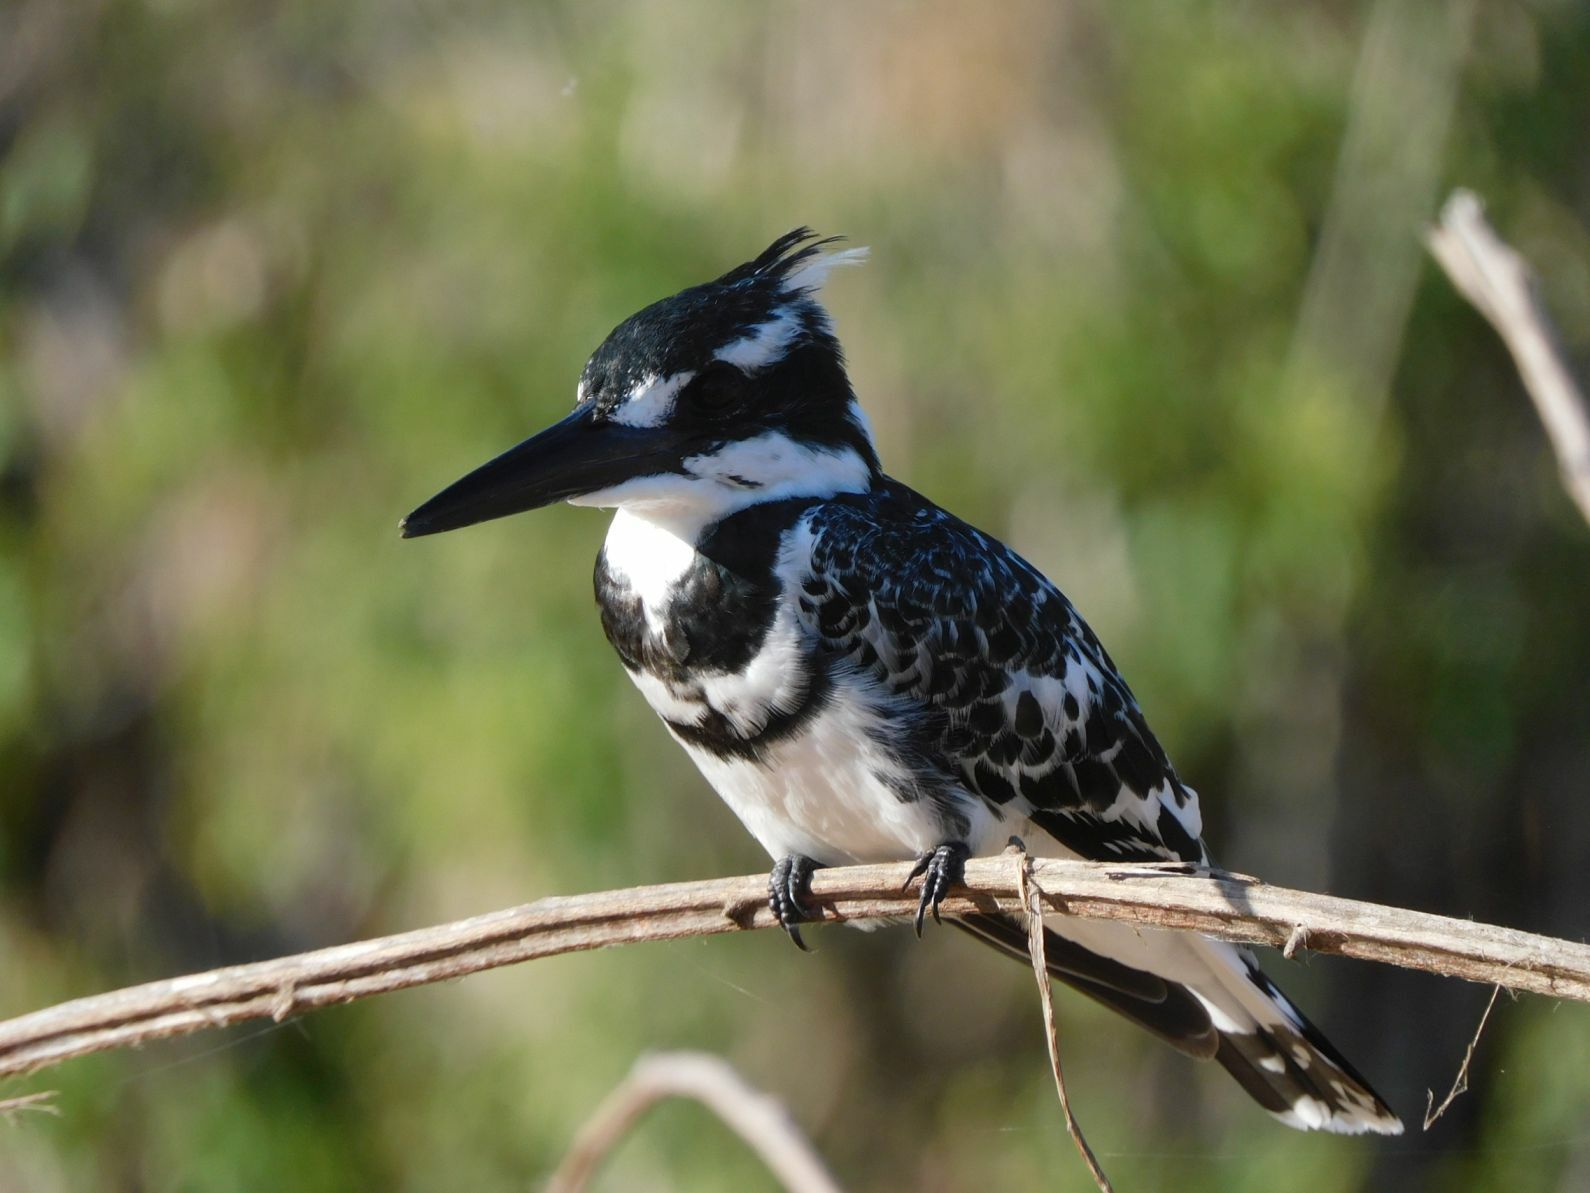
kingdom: Animalia
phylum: Chordata
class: Aves
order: Coraciiformes
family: Alcedinidae
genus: Ceryle
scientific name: Ceryle rudis
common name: Pied kingfisher
